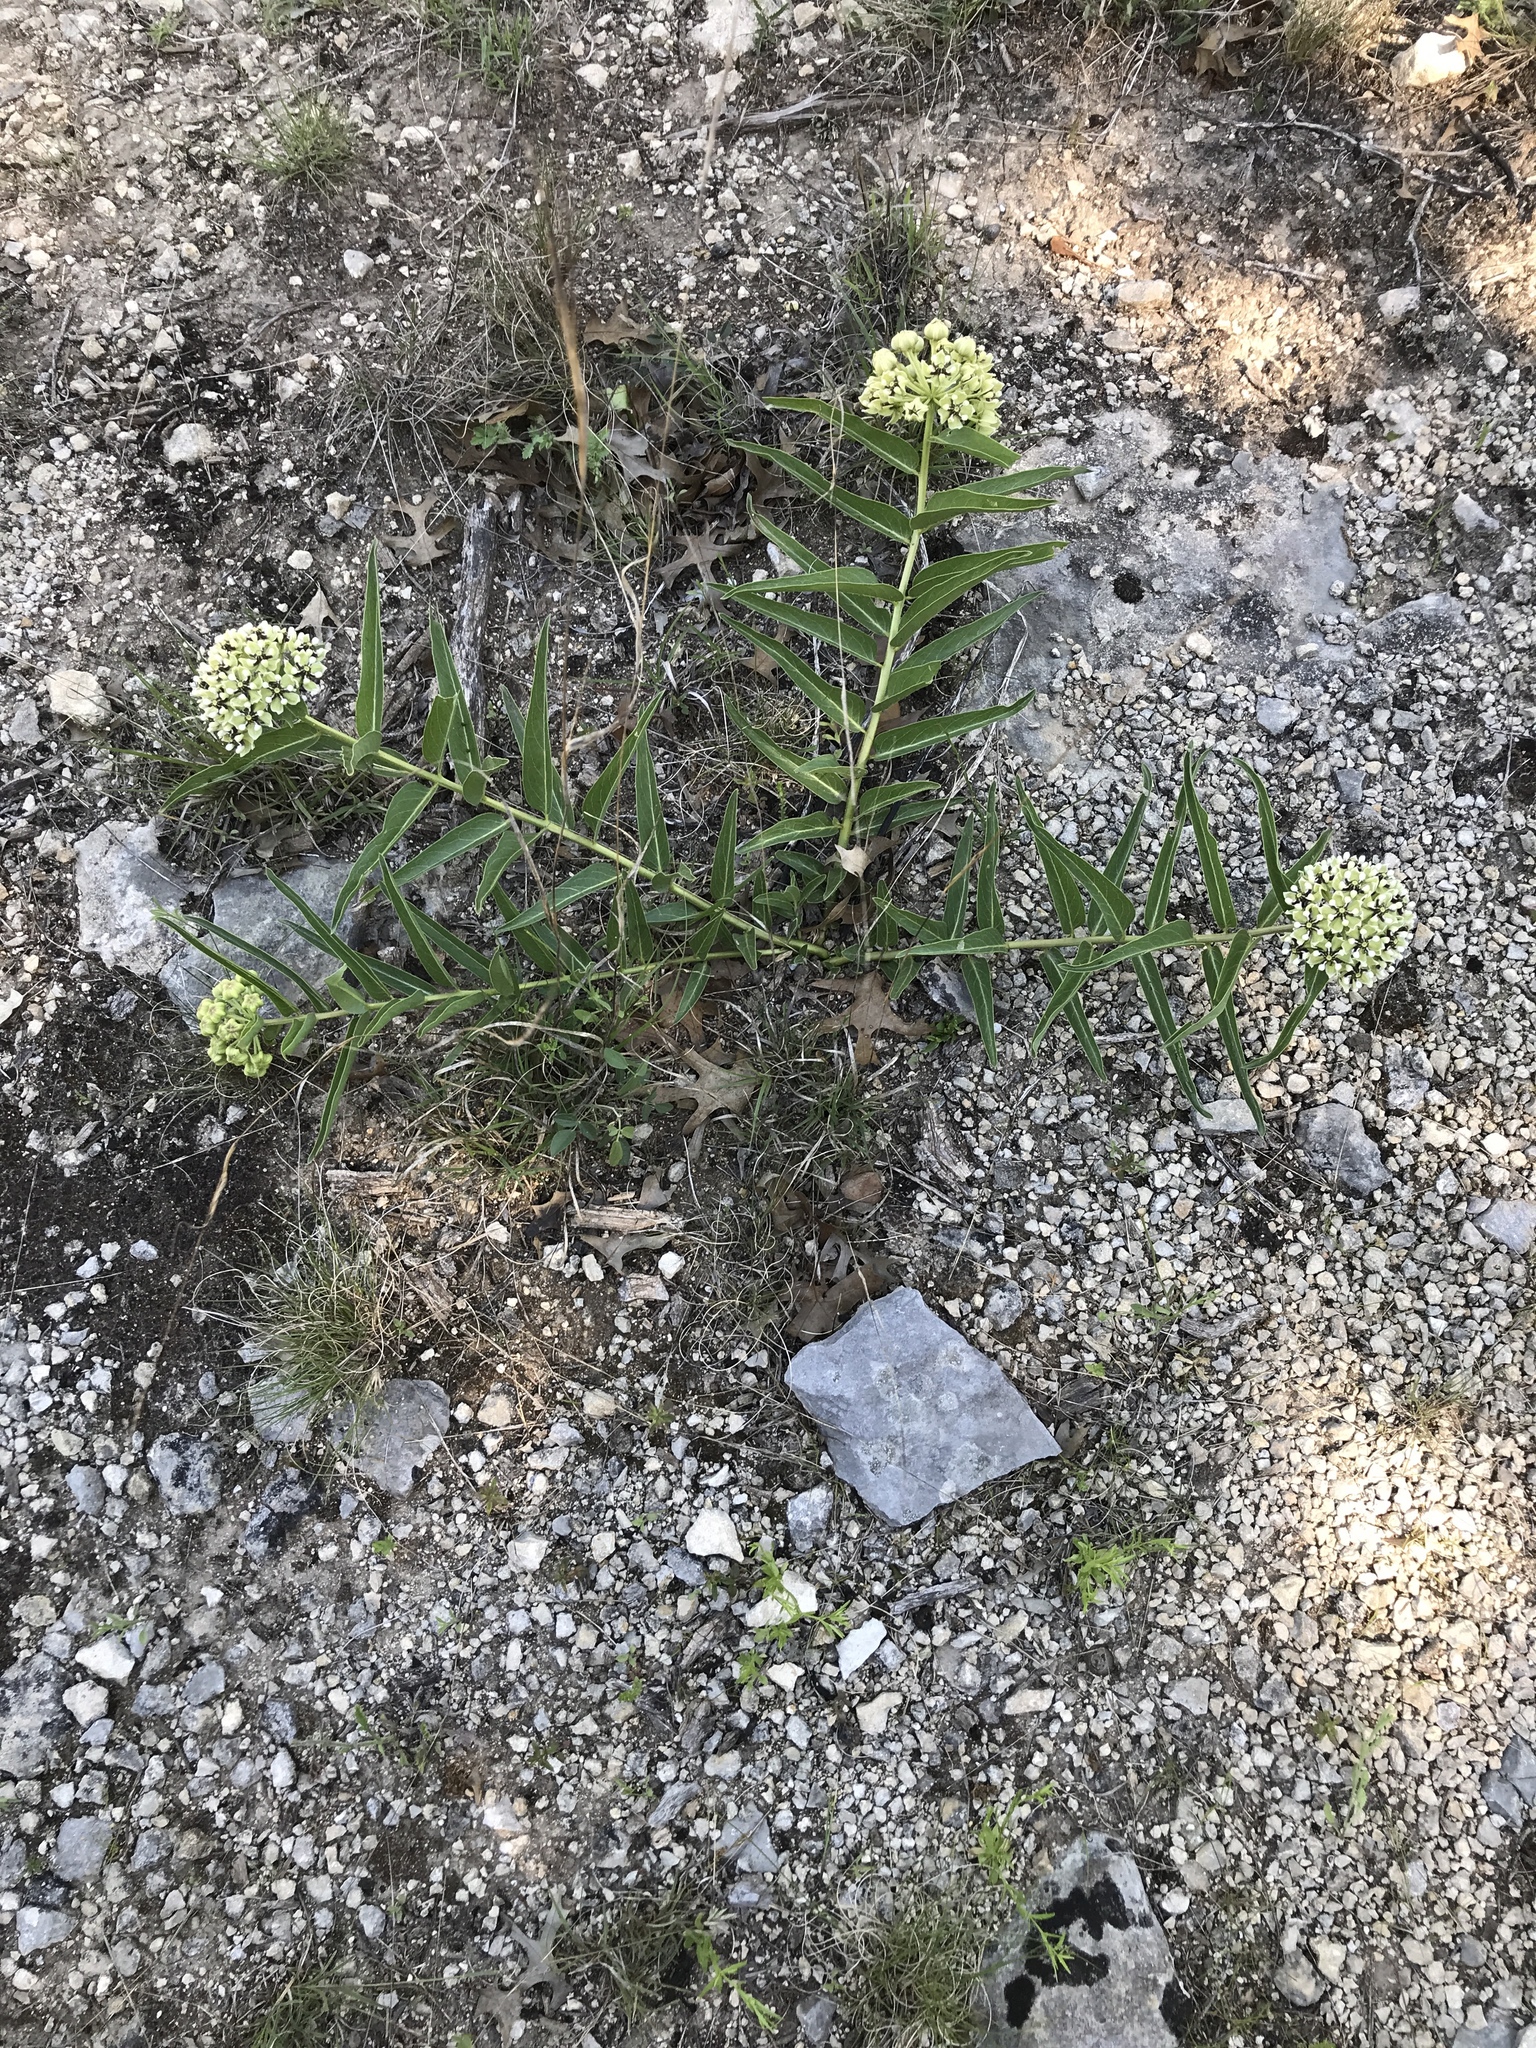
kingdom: Plantae
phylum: Tracheophyta
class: Magnoliopsida
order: Gentianales
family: Apocynaceae
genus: Asclepias
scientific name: Asclepias asperula
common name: Antelope horns
